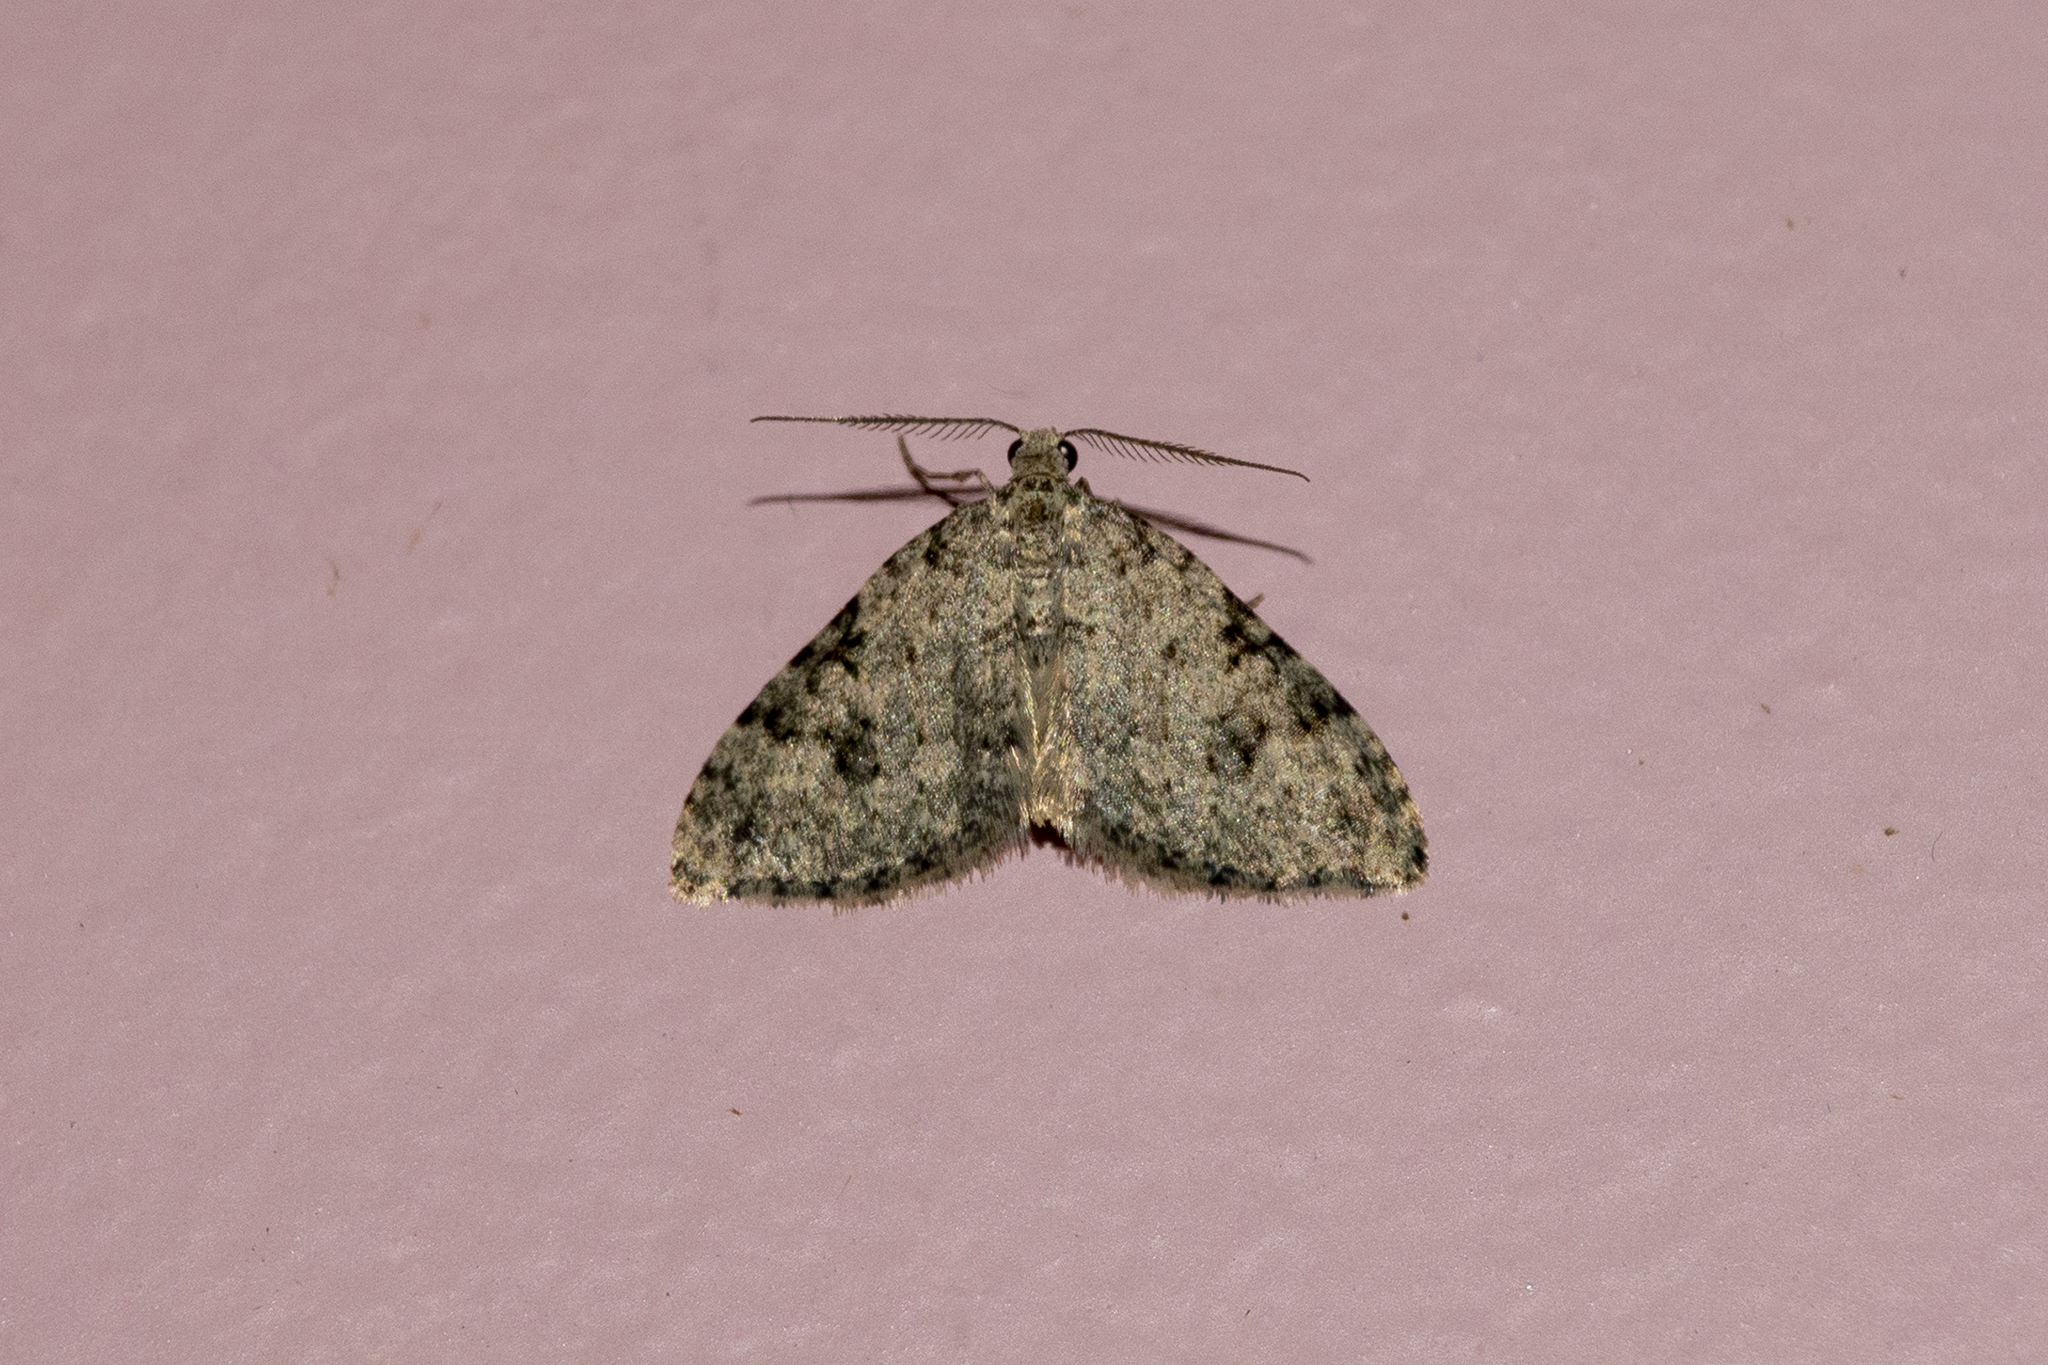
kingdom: Animalia
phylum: Arthropoda
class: Insecta
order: Lepidoptera
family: Geometridae
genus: Helastia
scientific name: Helastia cinerearia
